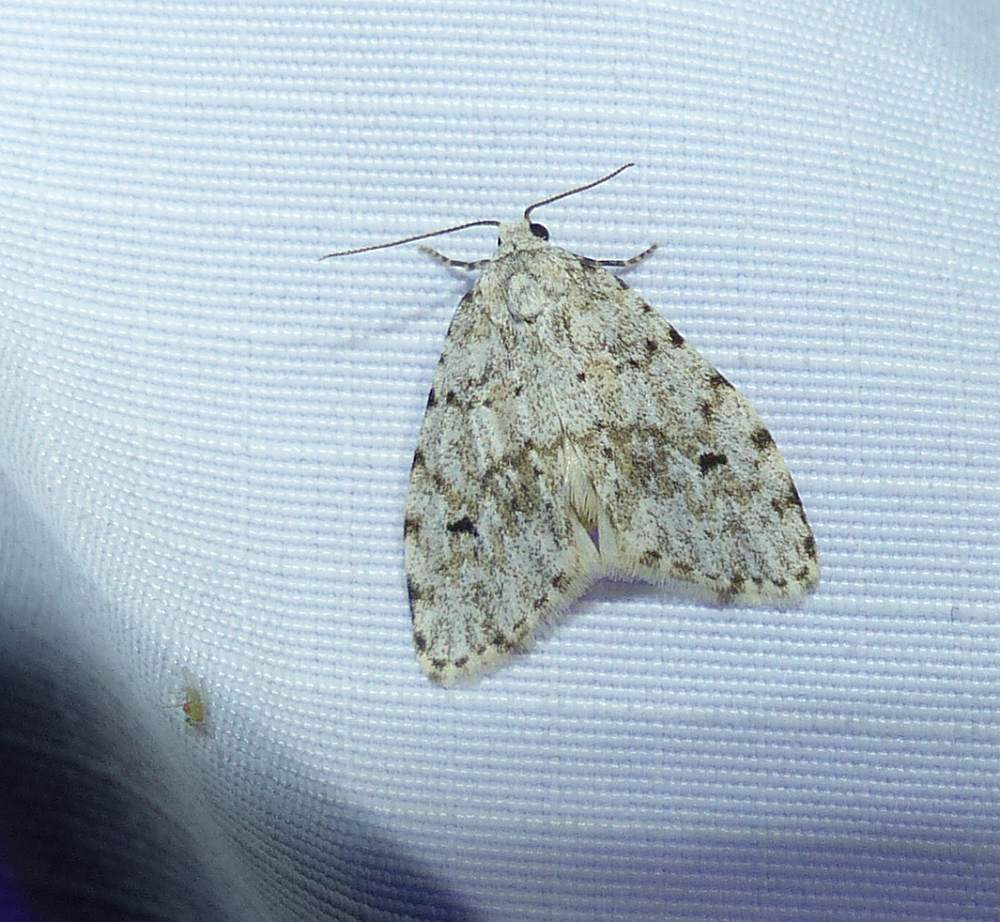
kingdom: Animalia
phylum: Arthropoda
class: Insecta
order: Lepidoptera
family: Erebidae
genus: Clemensia
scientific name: Clemensia albata
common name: Little white lichen moth
